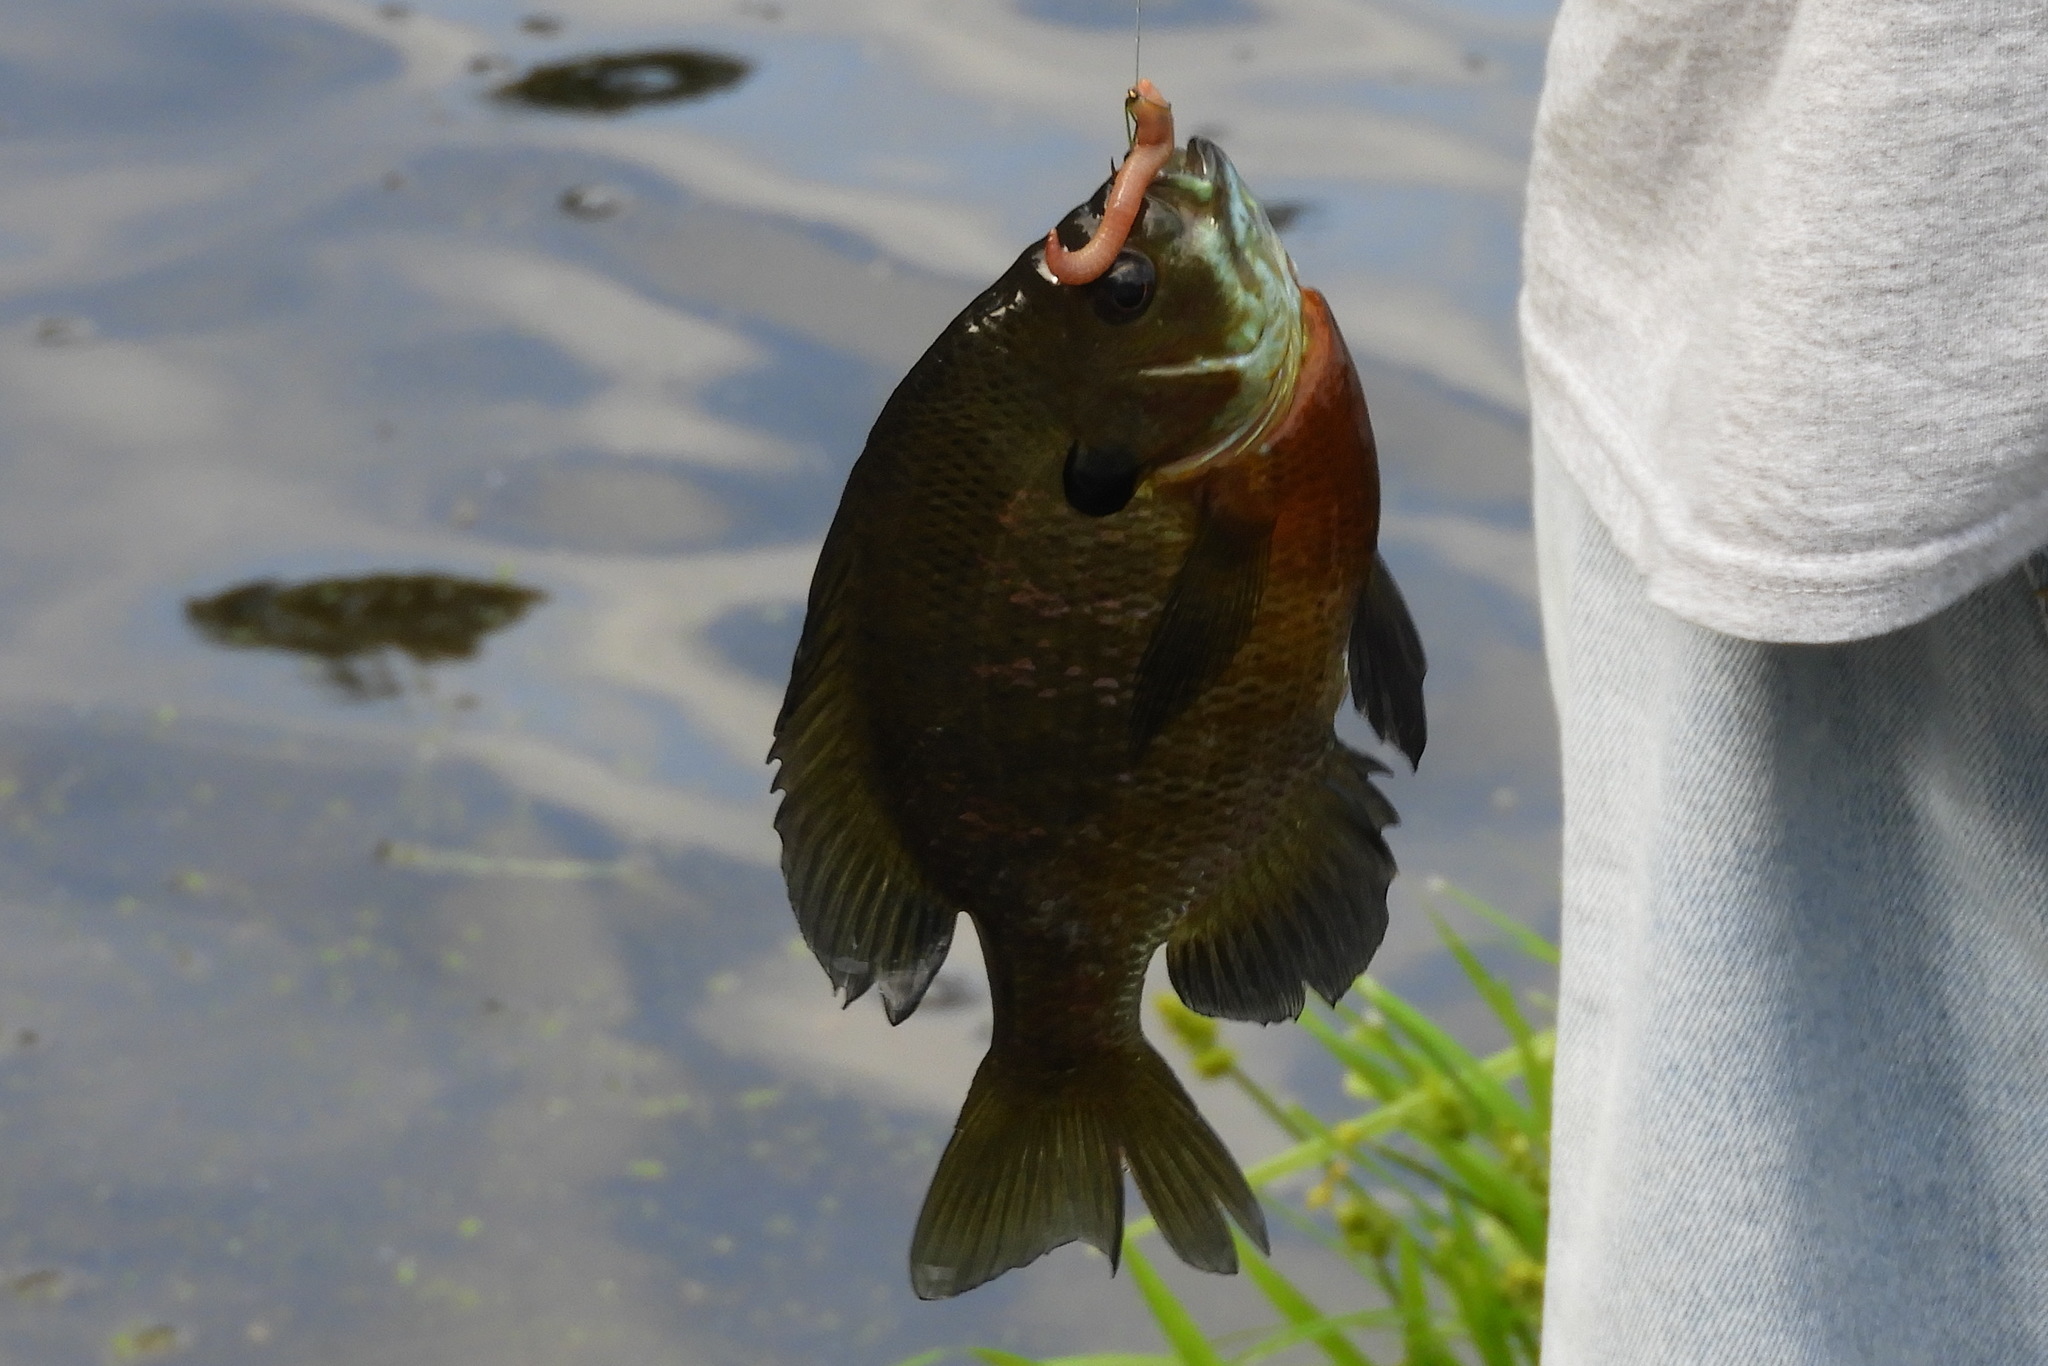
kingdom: Animalia
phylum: Chordata
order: Perciformes
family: Centrarchidae
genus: Lepomis
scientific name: Lepomis macrochirus
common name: Bluegill
